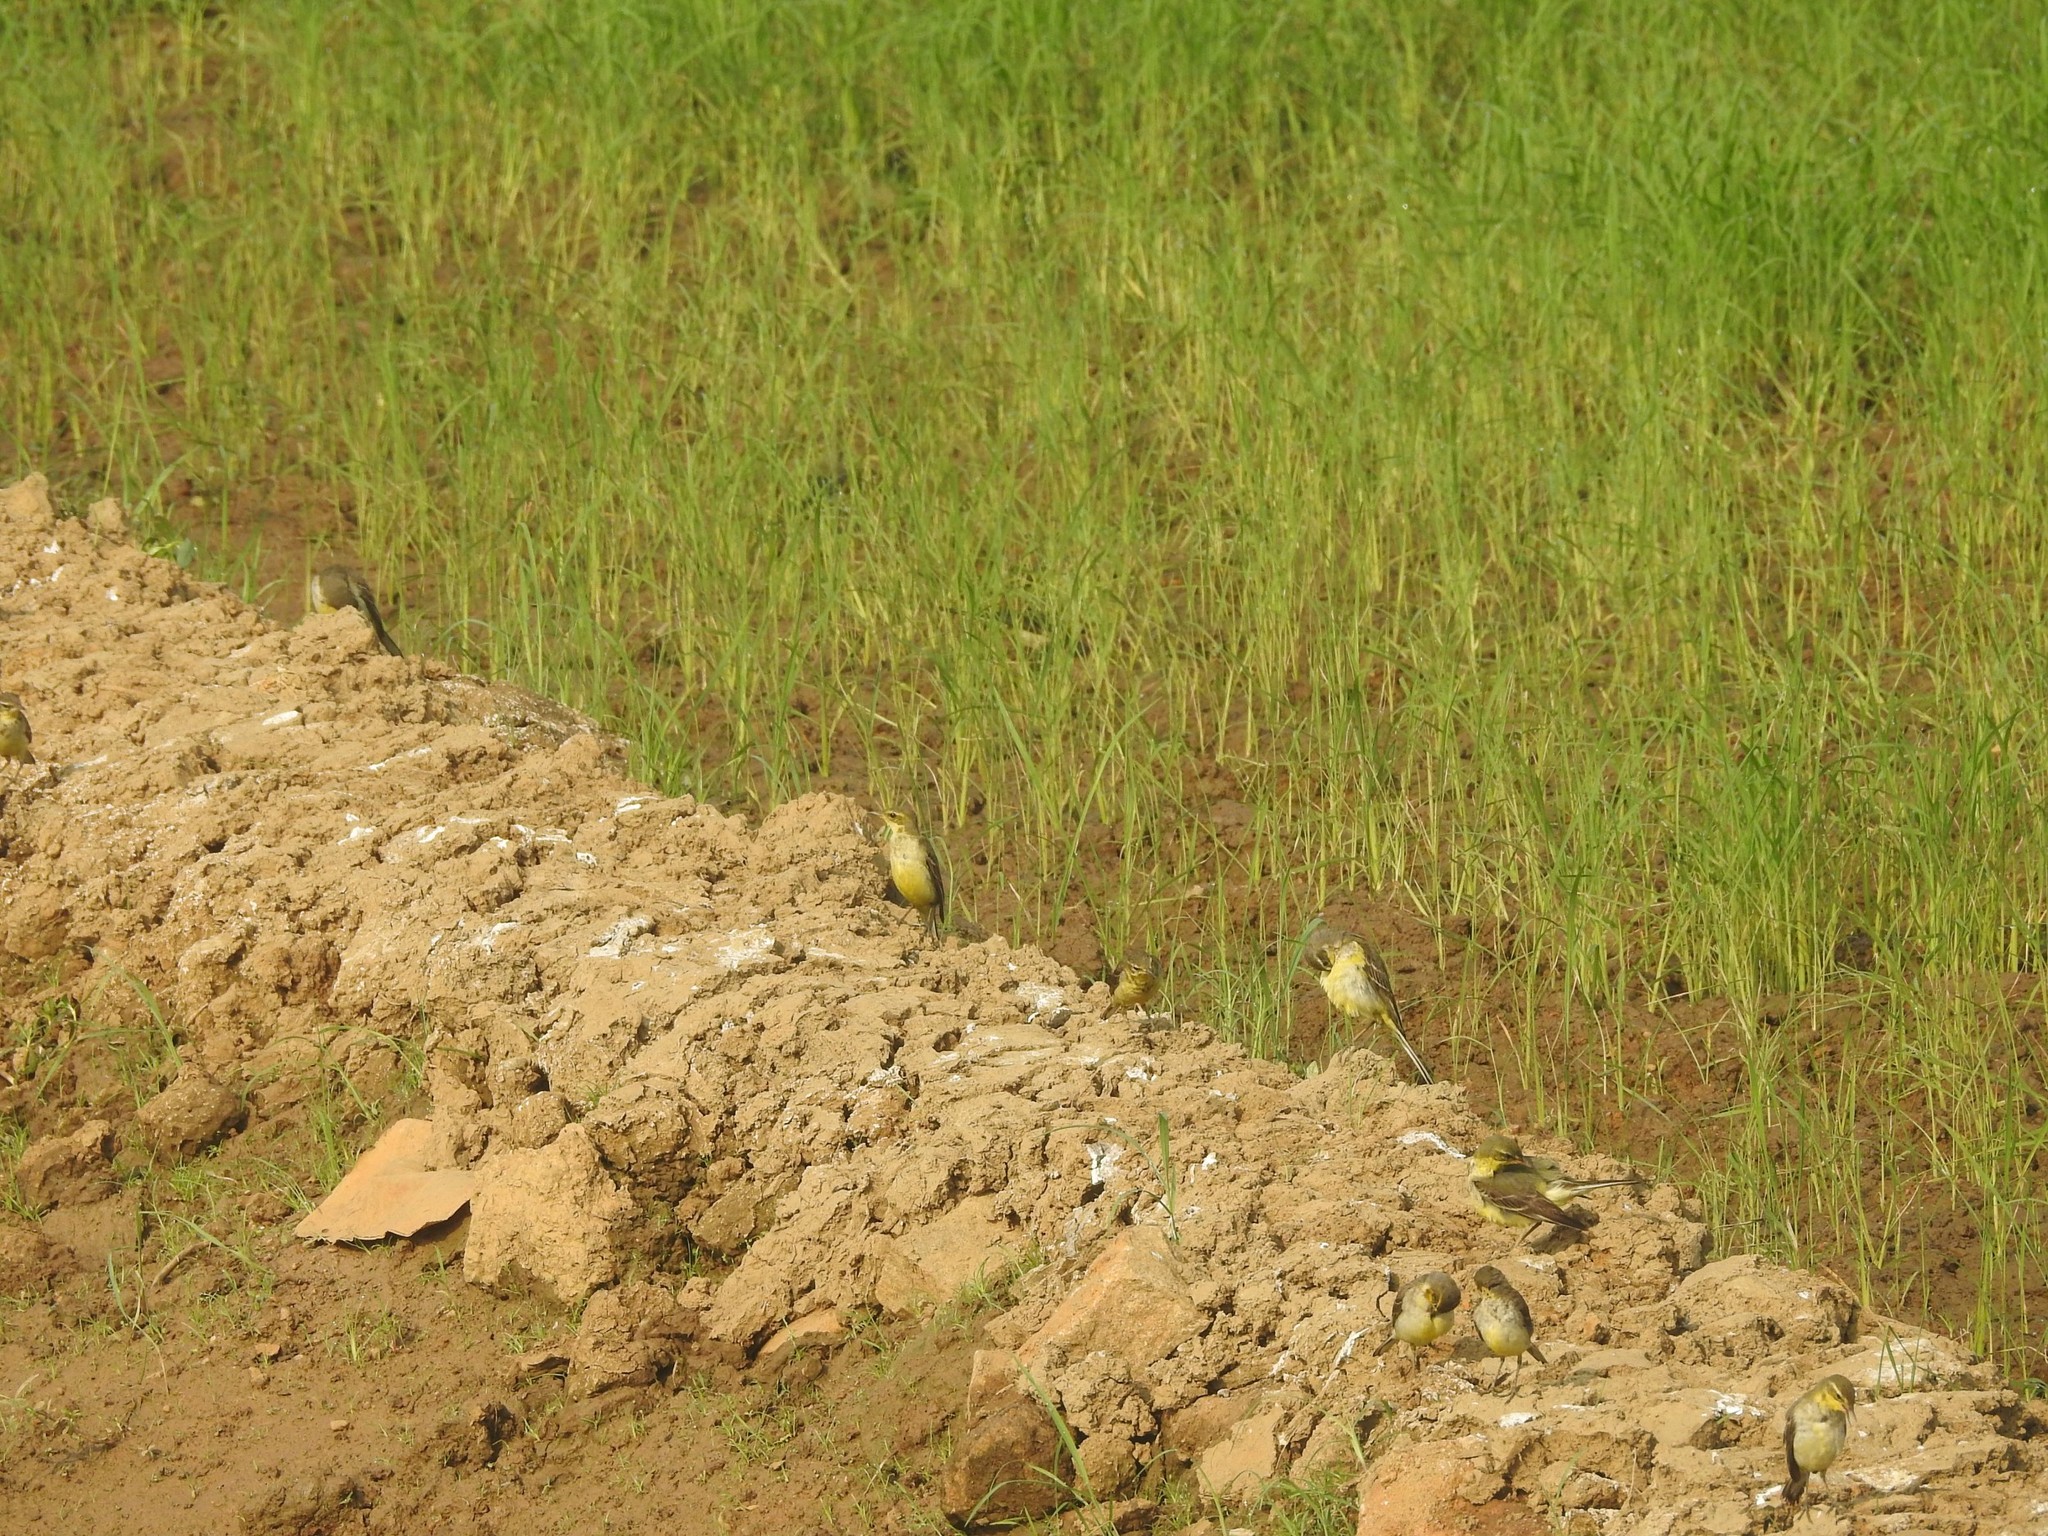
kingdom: Animalia
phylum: Chordata
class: Aves
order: Passeriformes
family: Motacillidae
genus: Motacilla
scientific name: Motacilla flava
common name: Western yellow wagtail
